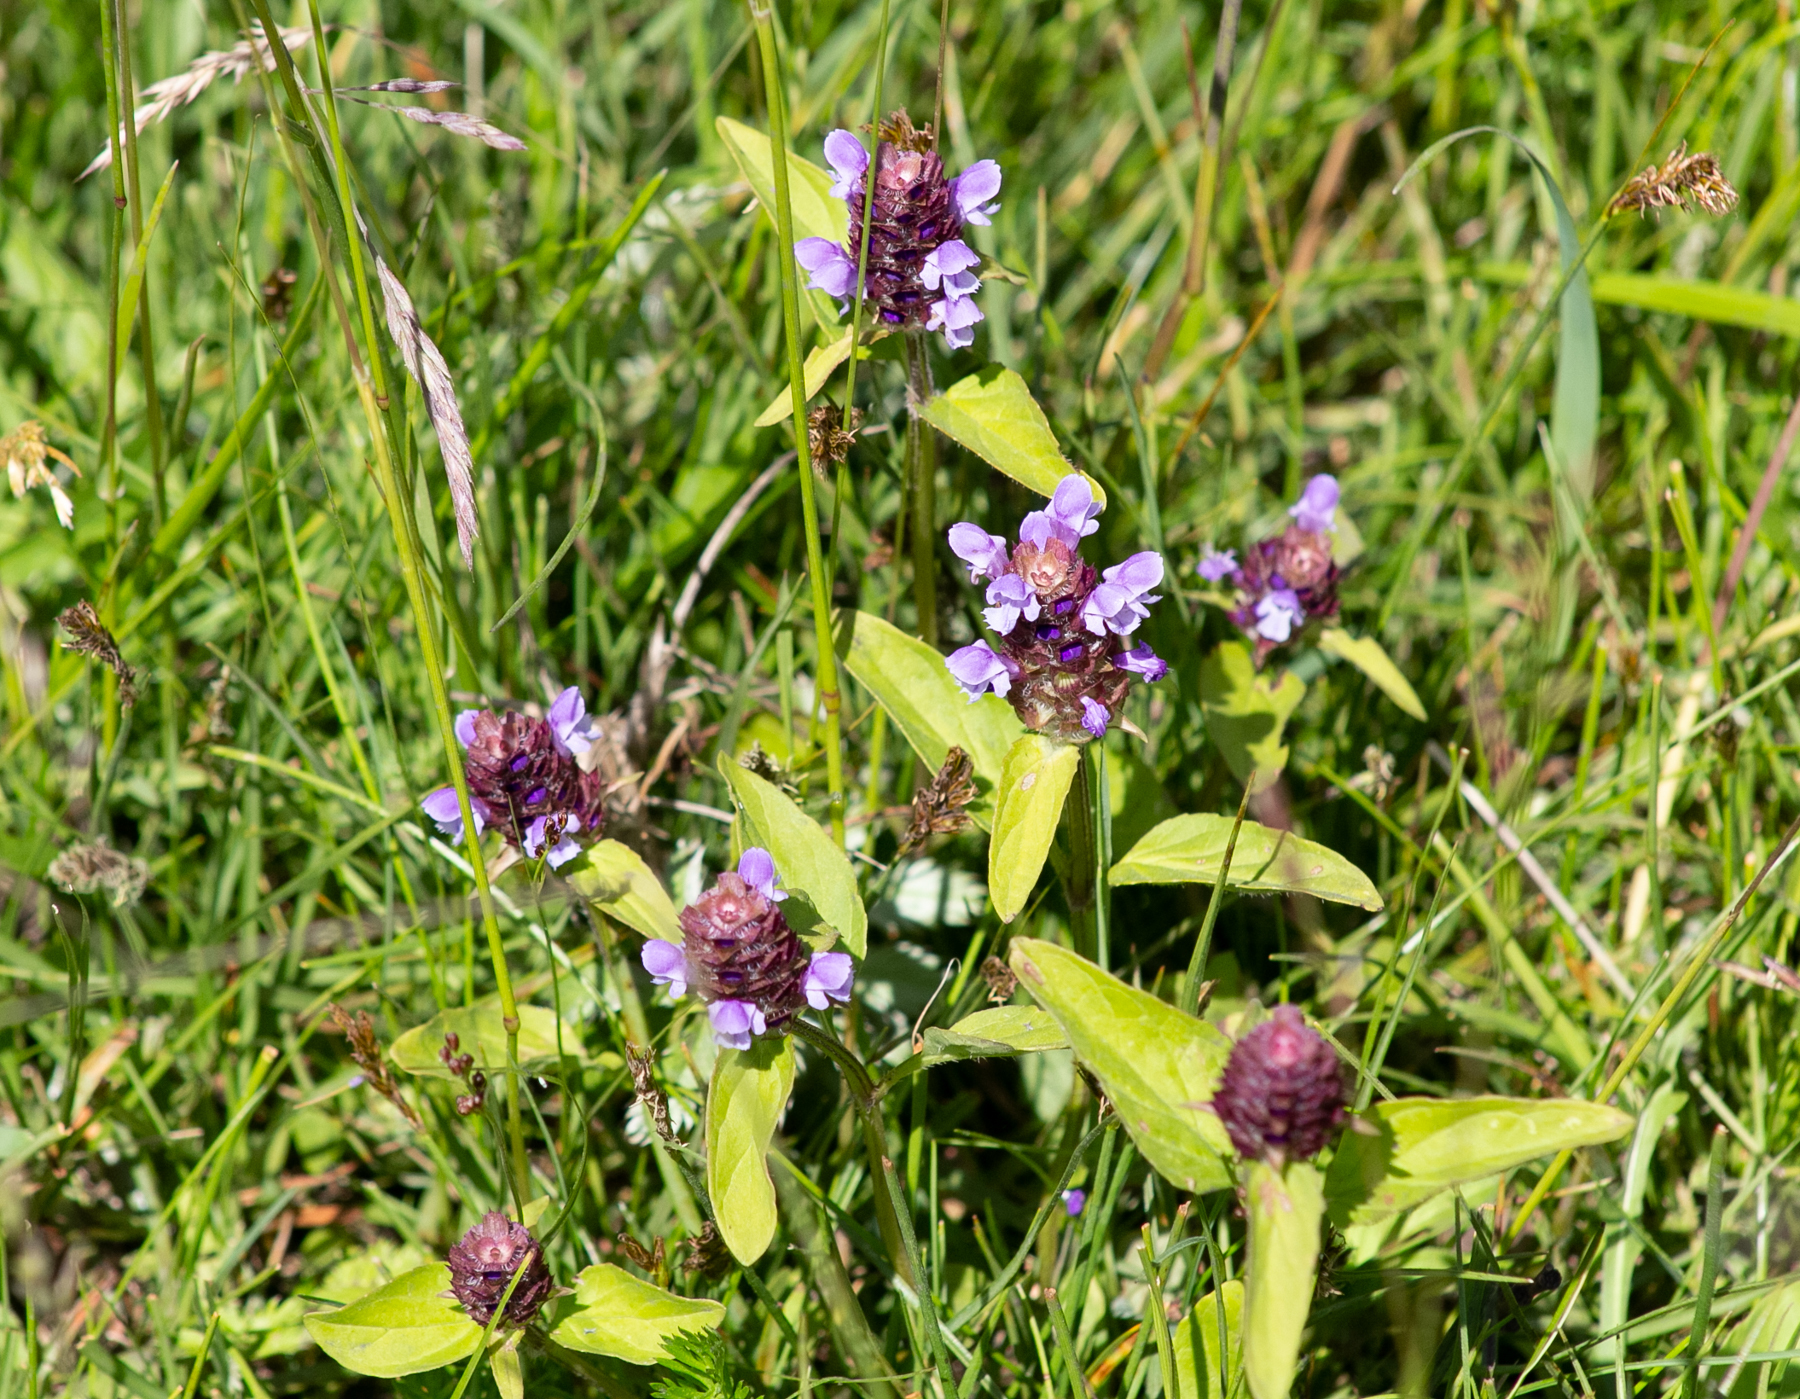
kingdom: Plantae
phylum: Tracheophyta
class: Magnoliopsida
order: Lamiales
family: Lamiaceae
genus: Prunella
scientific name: Prunella vulgaris
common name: Heal-all
